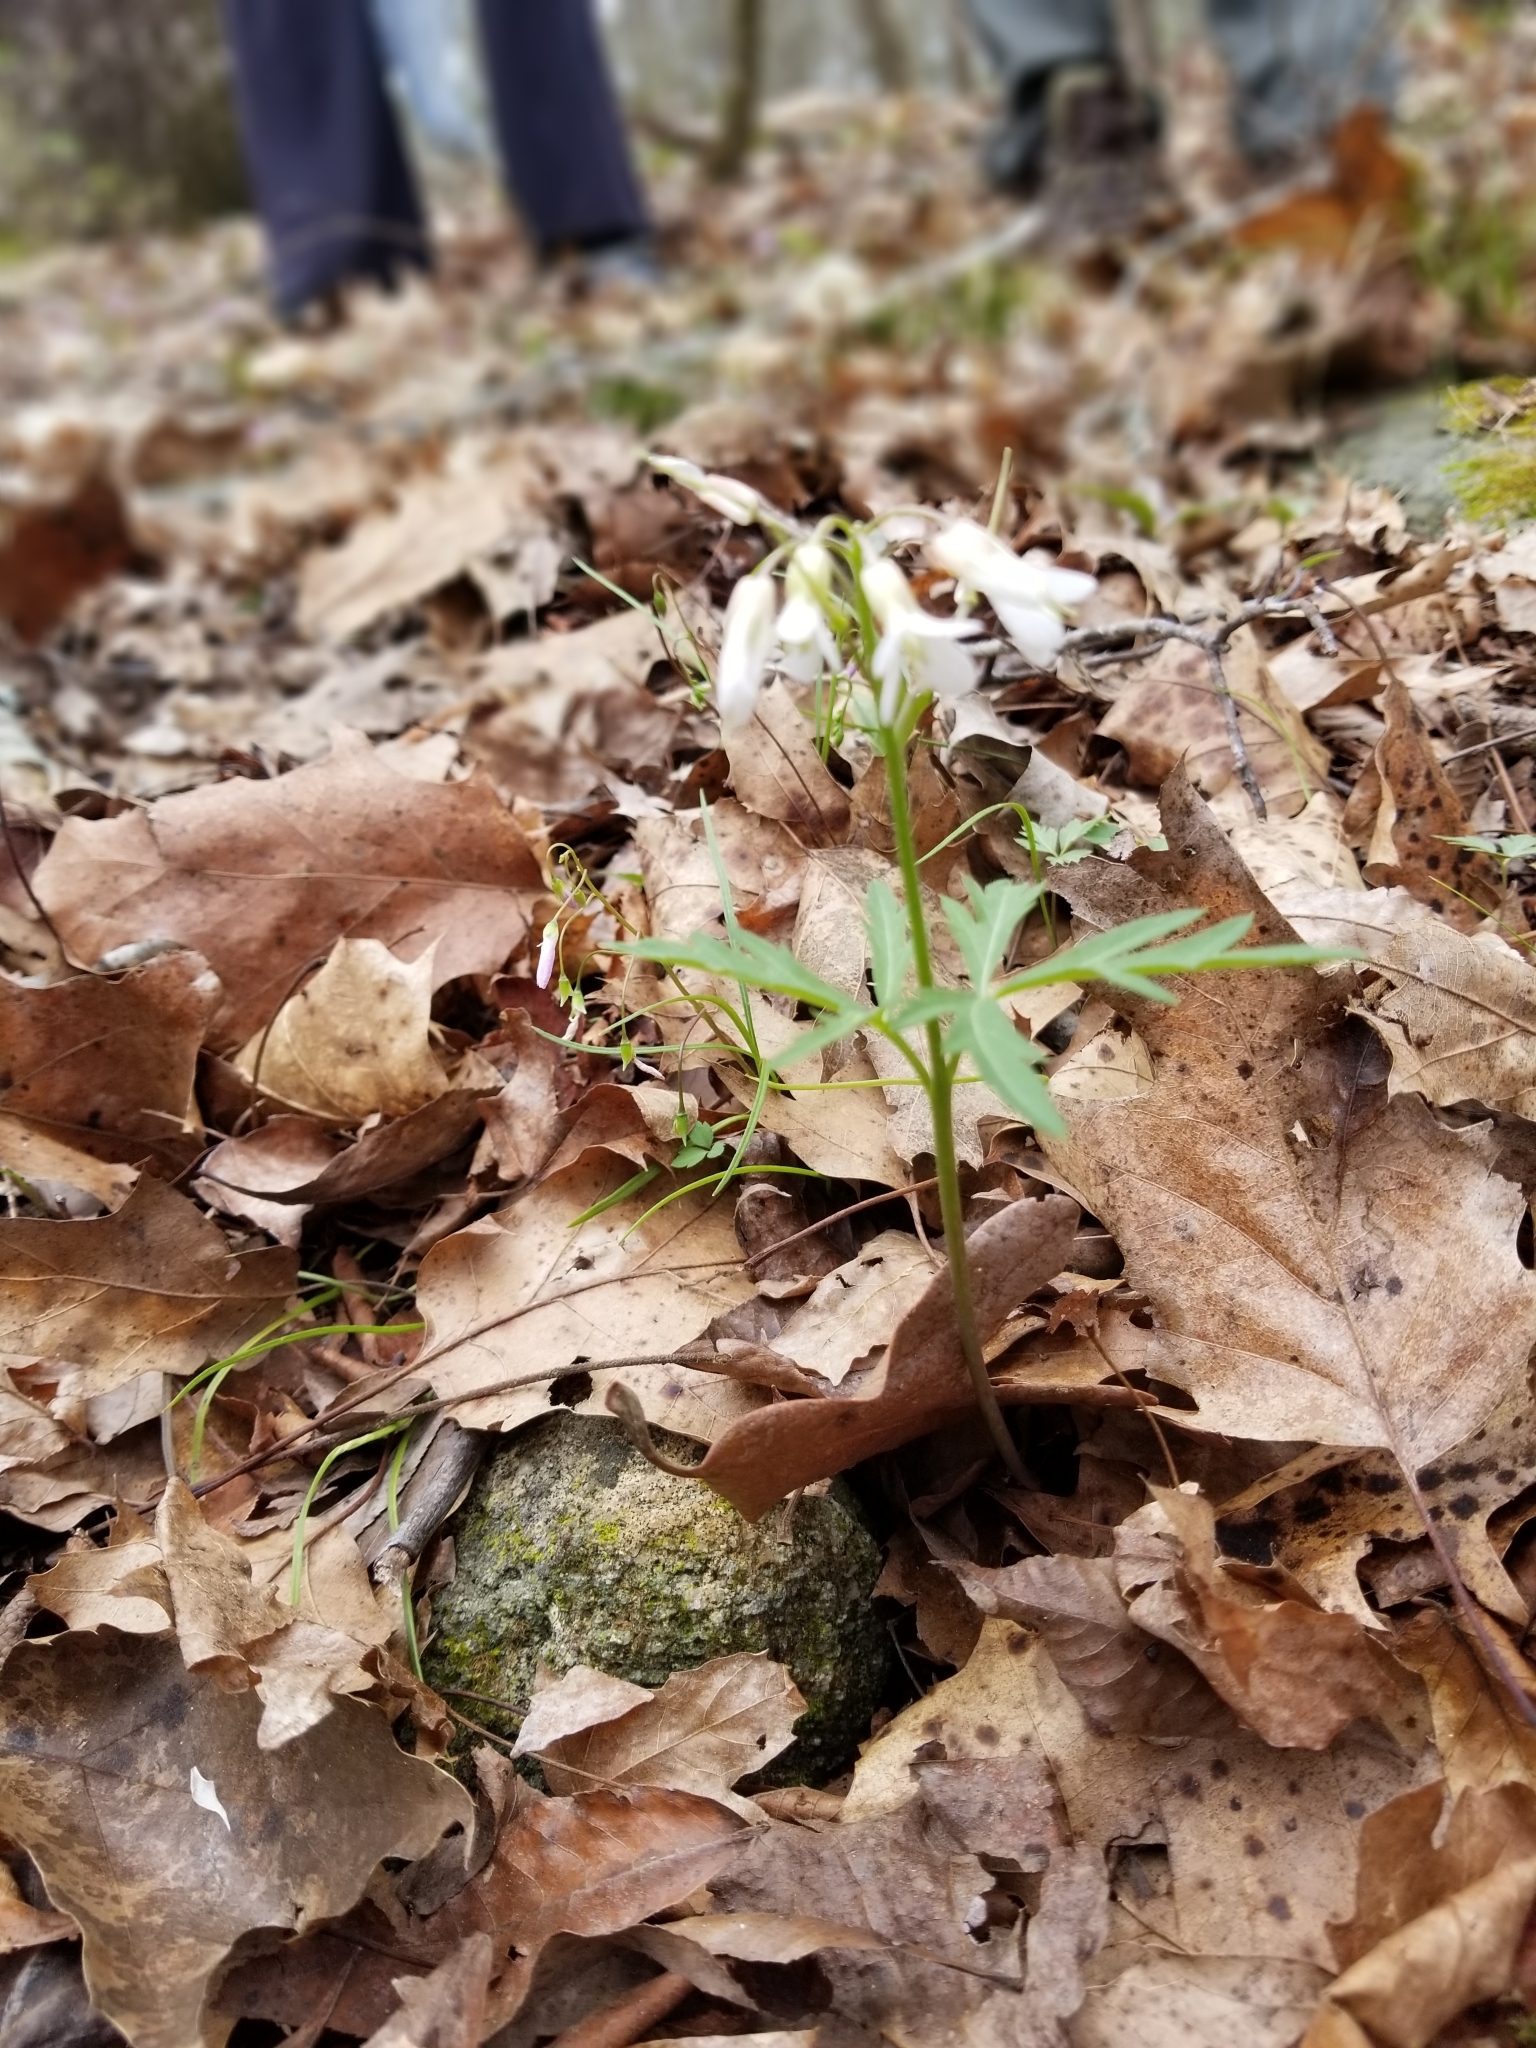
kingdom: Plantae
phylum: Tracheophyta
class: Magnoliopsida
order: Brassicales
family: Brassicaceae
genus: Cardamine
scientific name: Cardamine concatenata
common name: Cut-leaf toothcup
